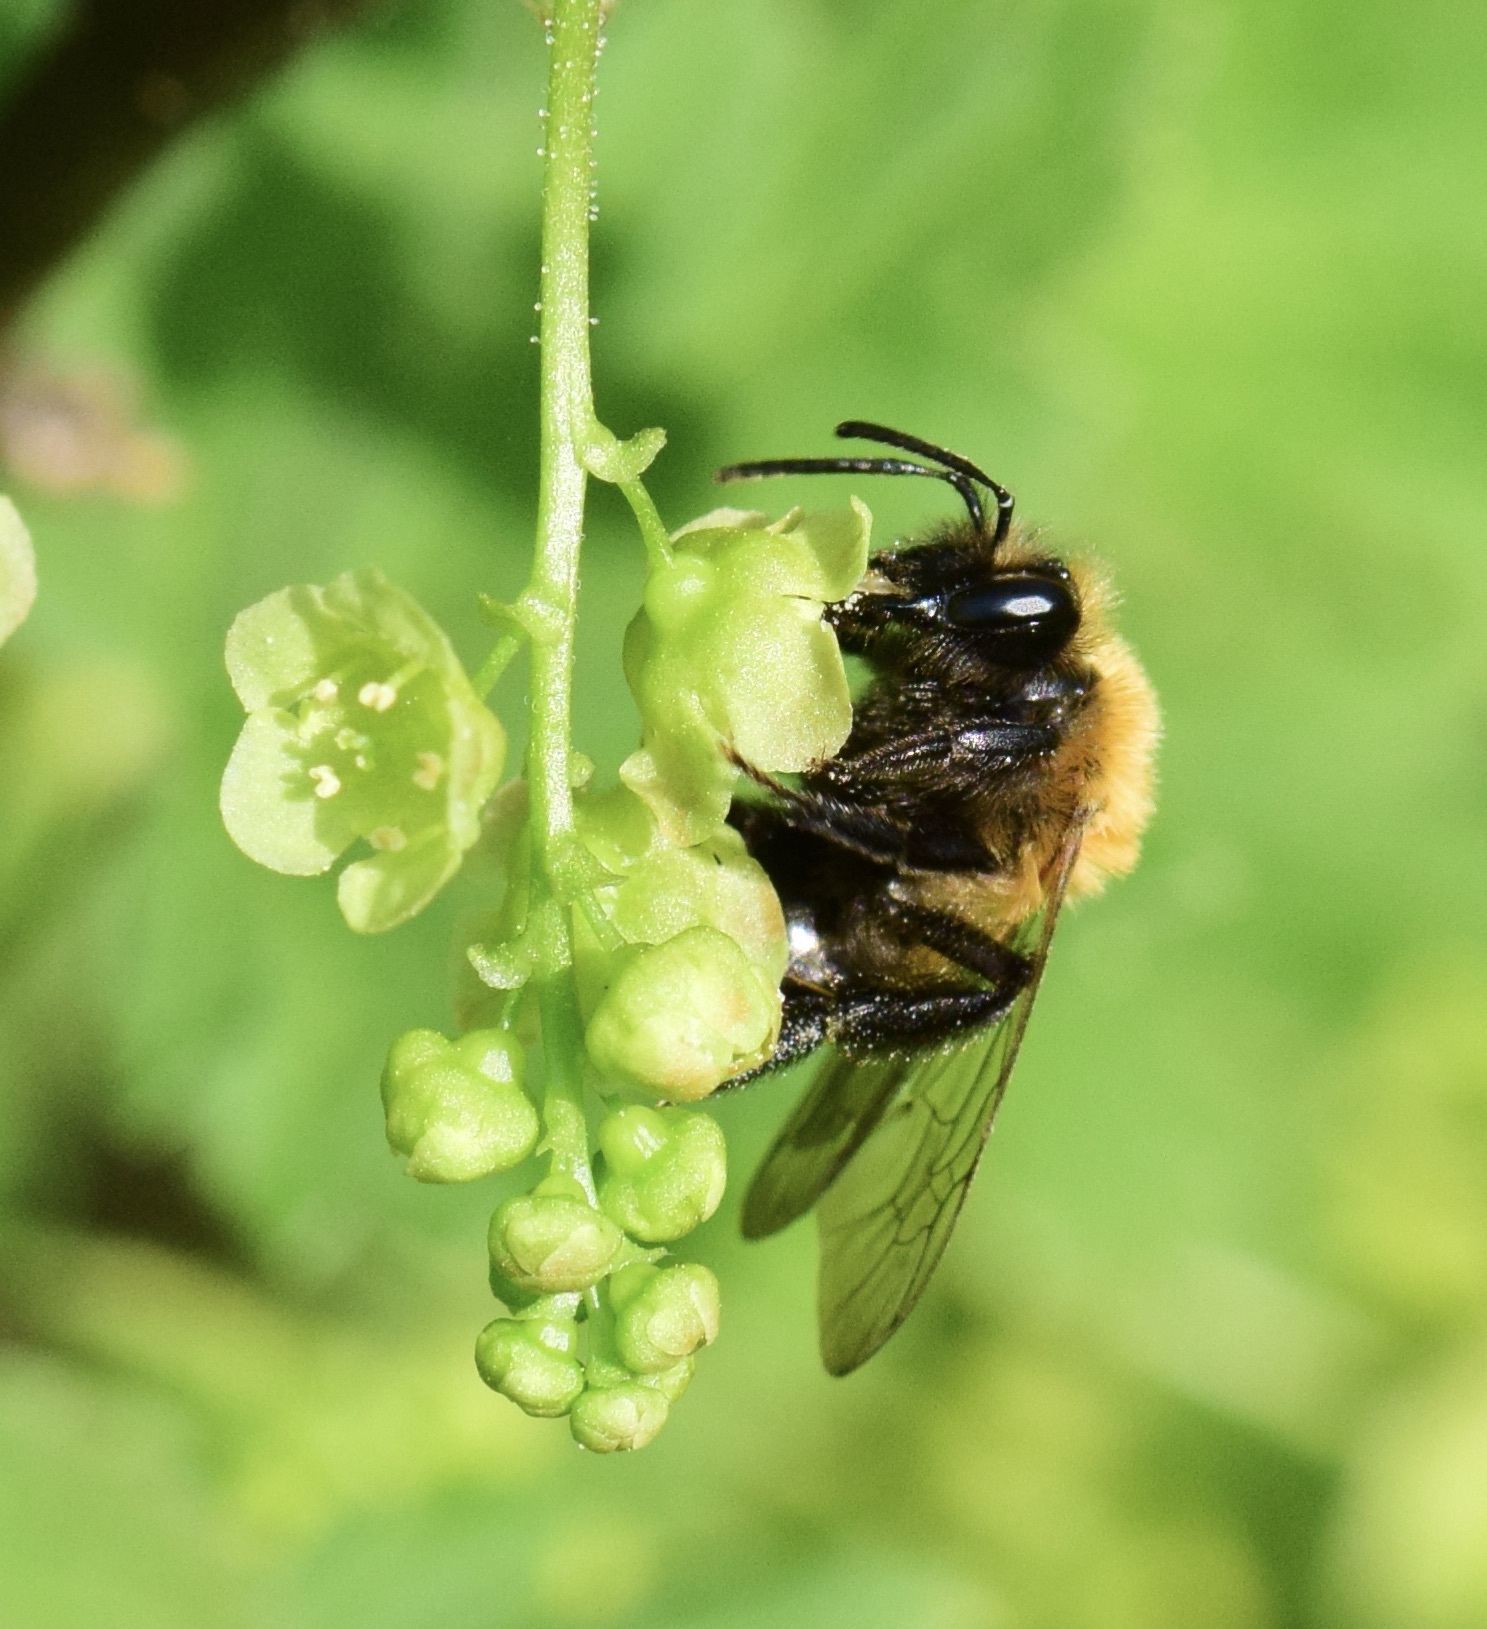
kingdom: Animalia
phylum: Arthropoda
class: Insecta
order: Hymenoptera
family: Andrenidae
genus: Andrena
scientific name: Andrena milwaukeensis
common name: Milwaukee mining bee
